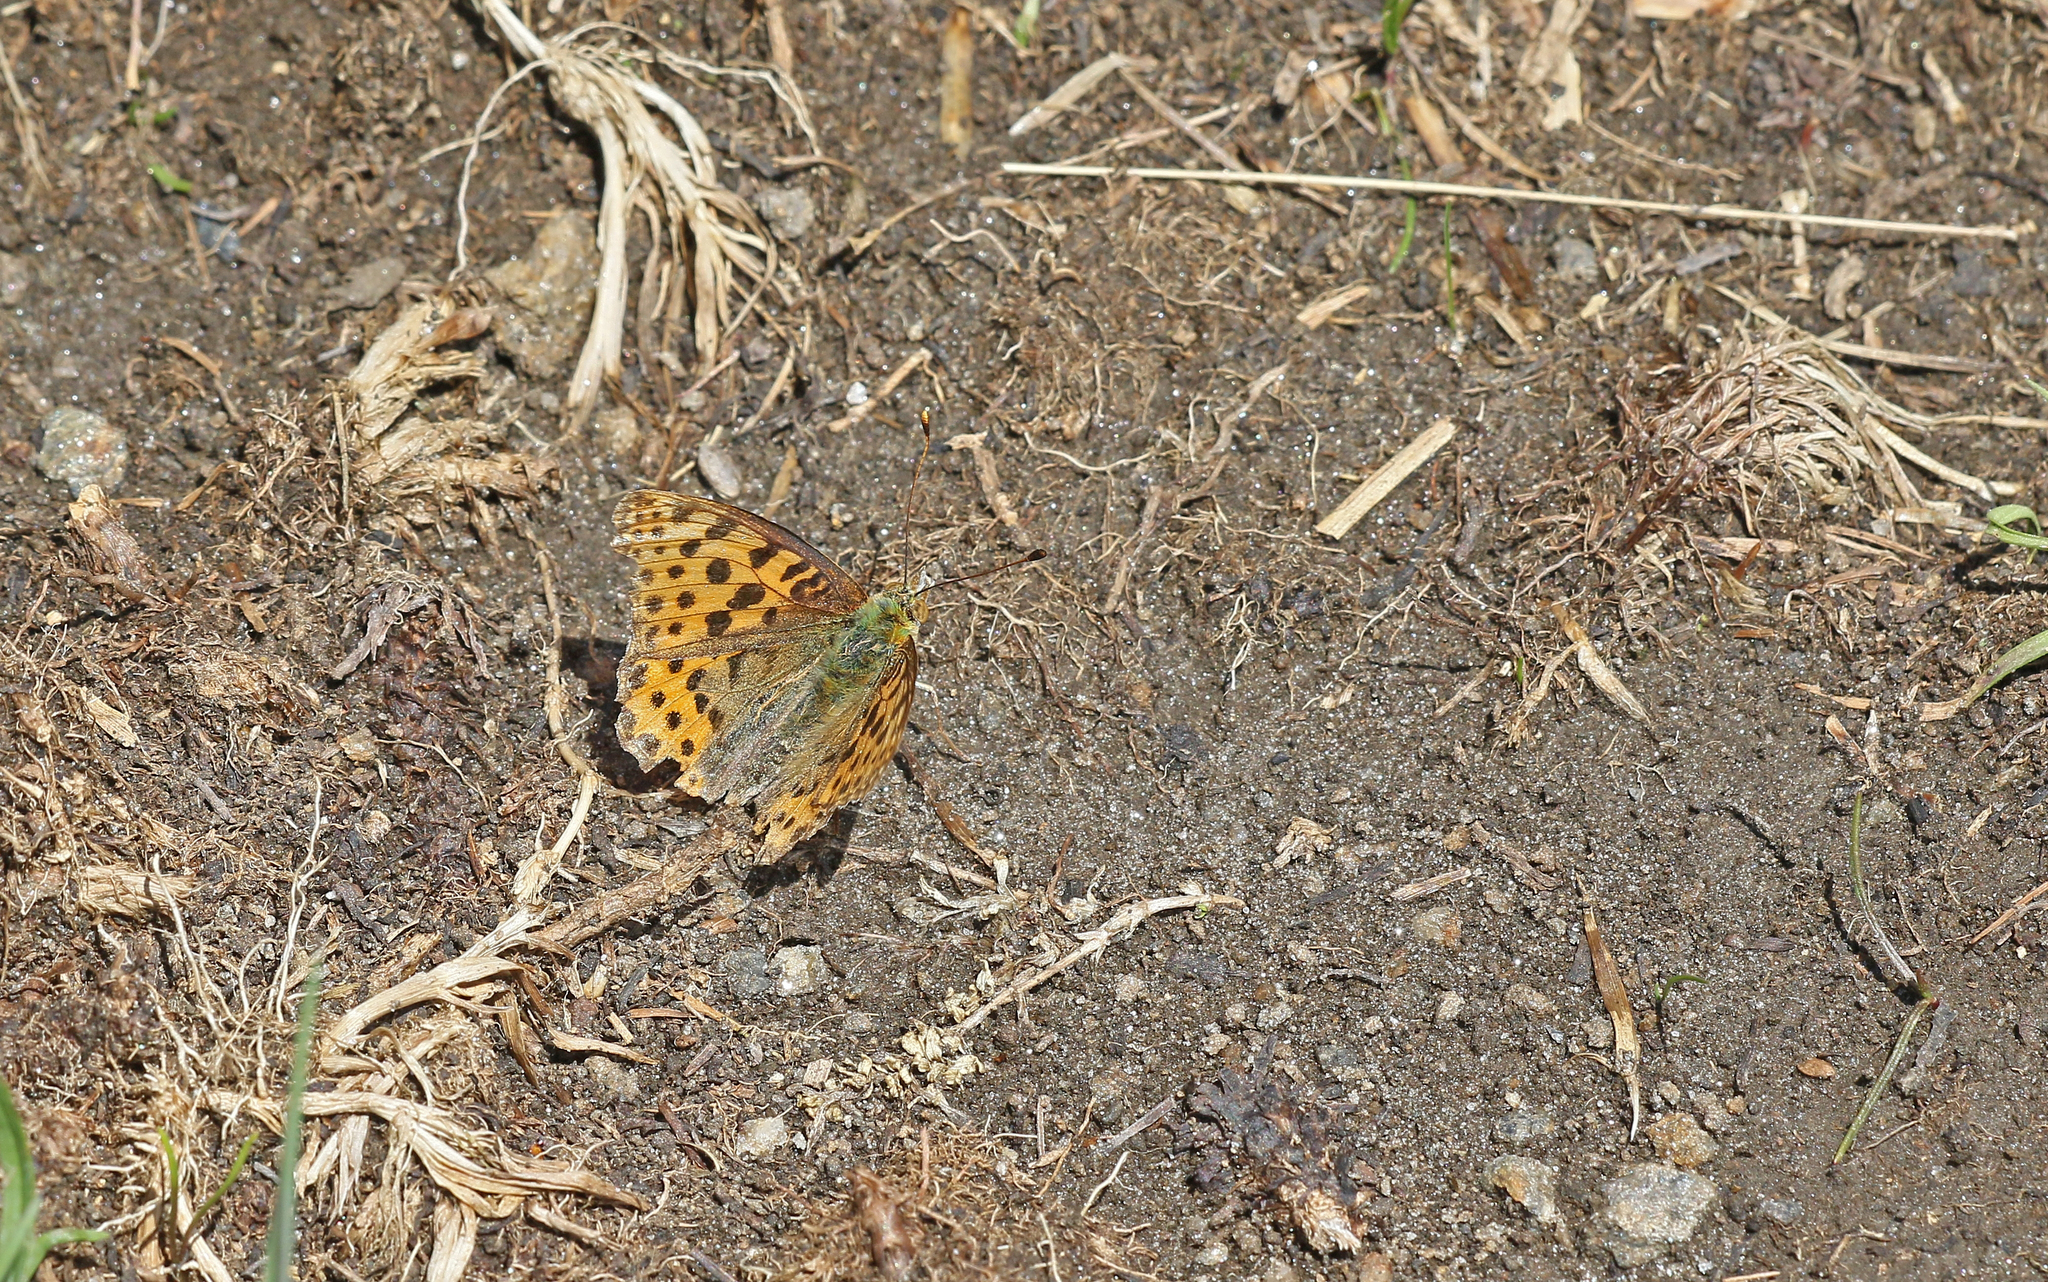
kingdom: Animalia
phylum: Arthropoda
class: Insecta
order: Lepidoptera
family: Nymphalidae
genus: Issoria
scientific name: Issoria lathonia
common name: Queen of spain fritillary
